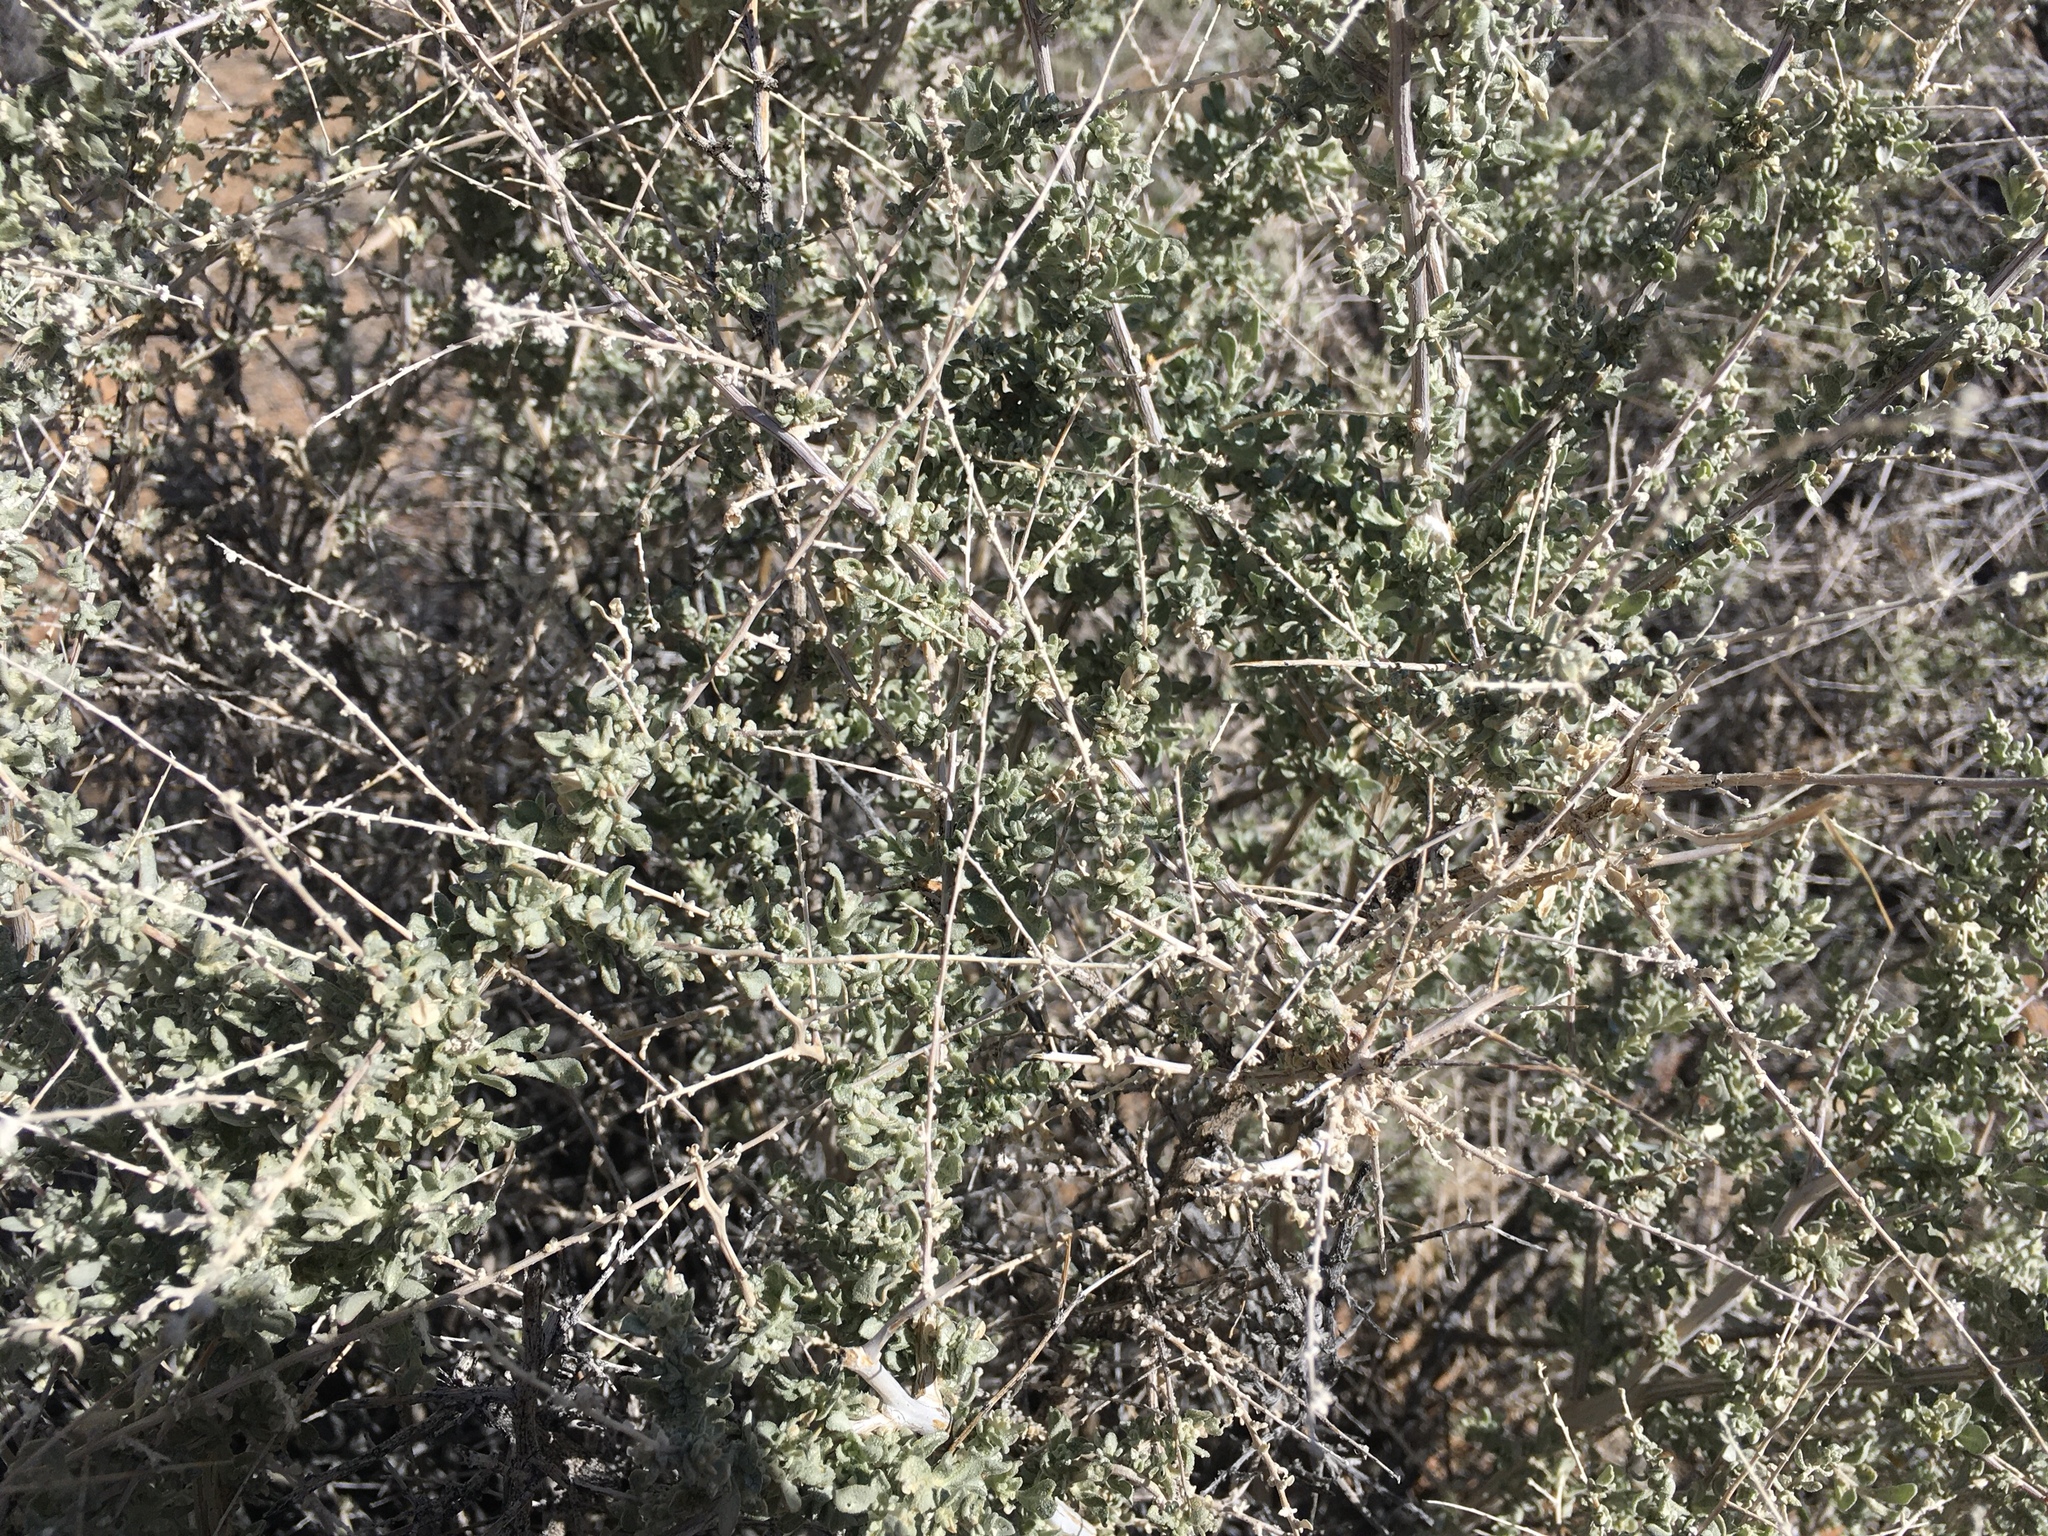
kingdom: Plantae
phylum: Tracheophyta
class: Magnoliopsida
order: Caryophyllales
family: Amaranthaceae
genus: Atriplex
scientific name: Atriplex polycarpa
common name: Desert saltbush
